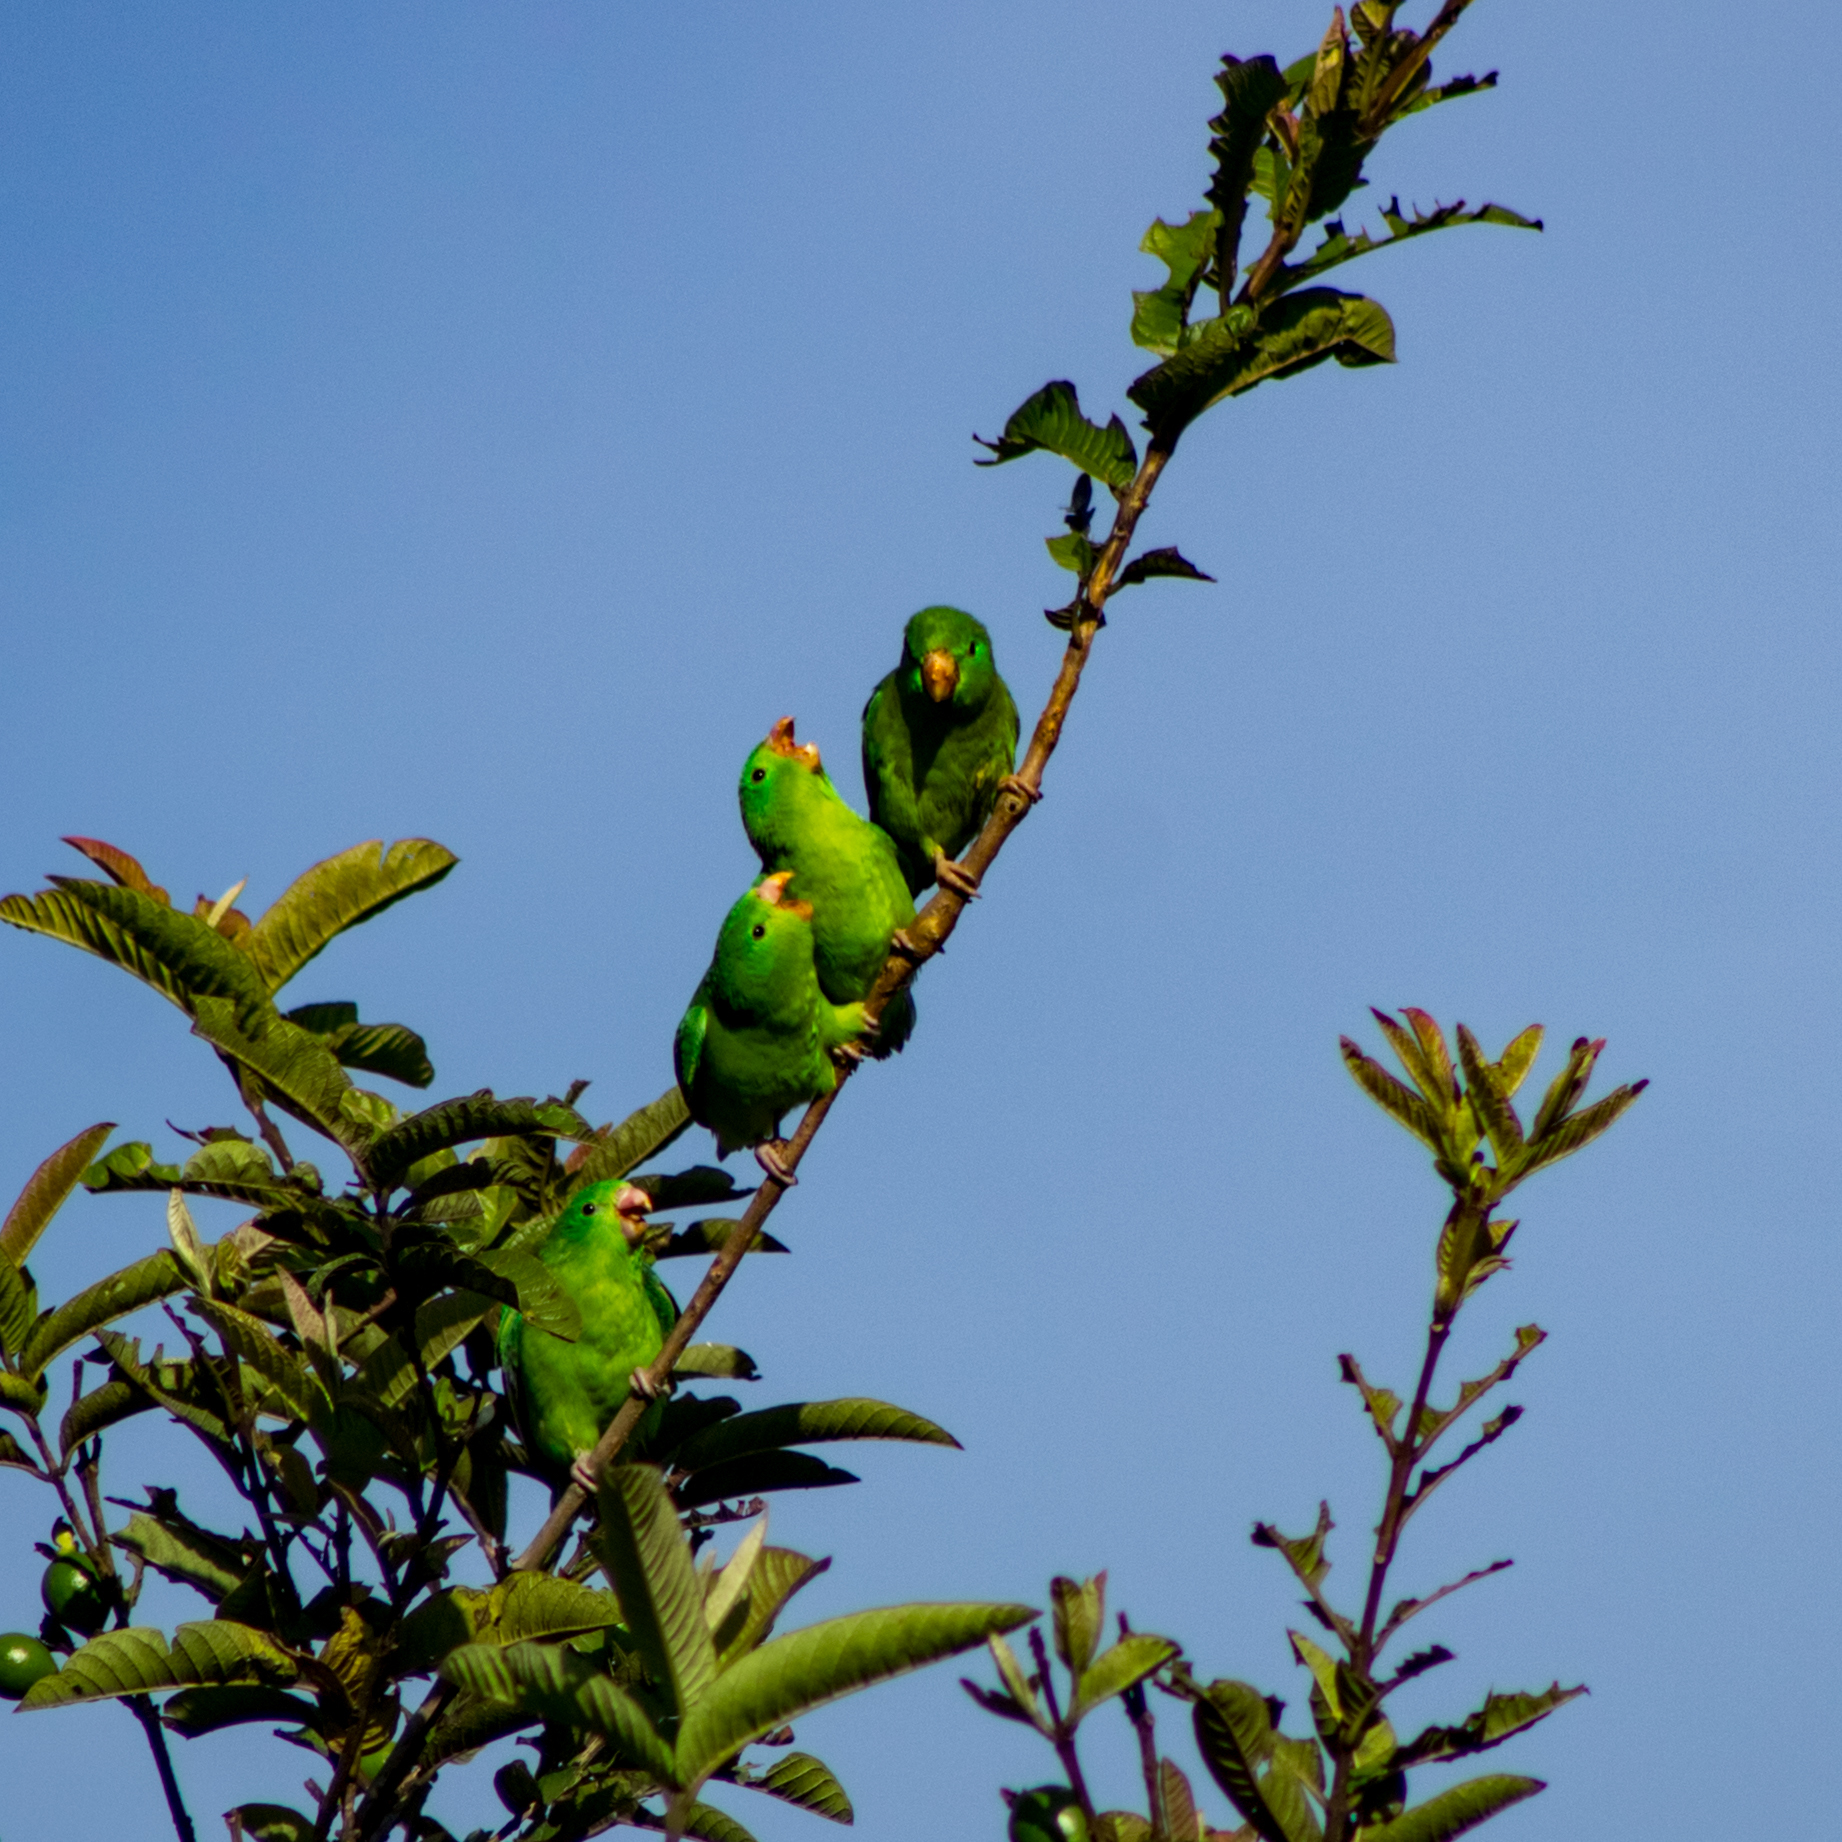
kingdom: Animalia
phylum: Chordata
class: Aves
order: Psittaciformes
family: Psittacidae
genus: Forpus
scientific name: Forpus conspicillatus
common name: Spectacled parrotlet
